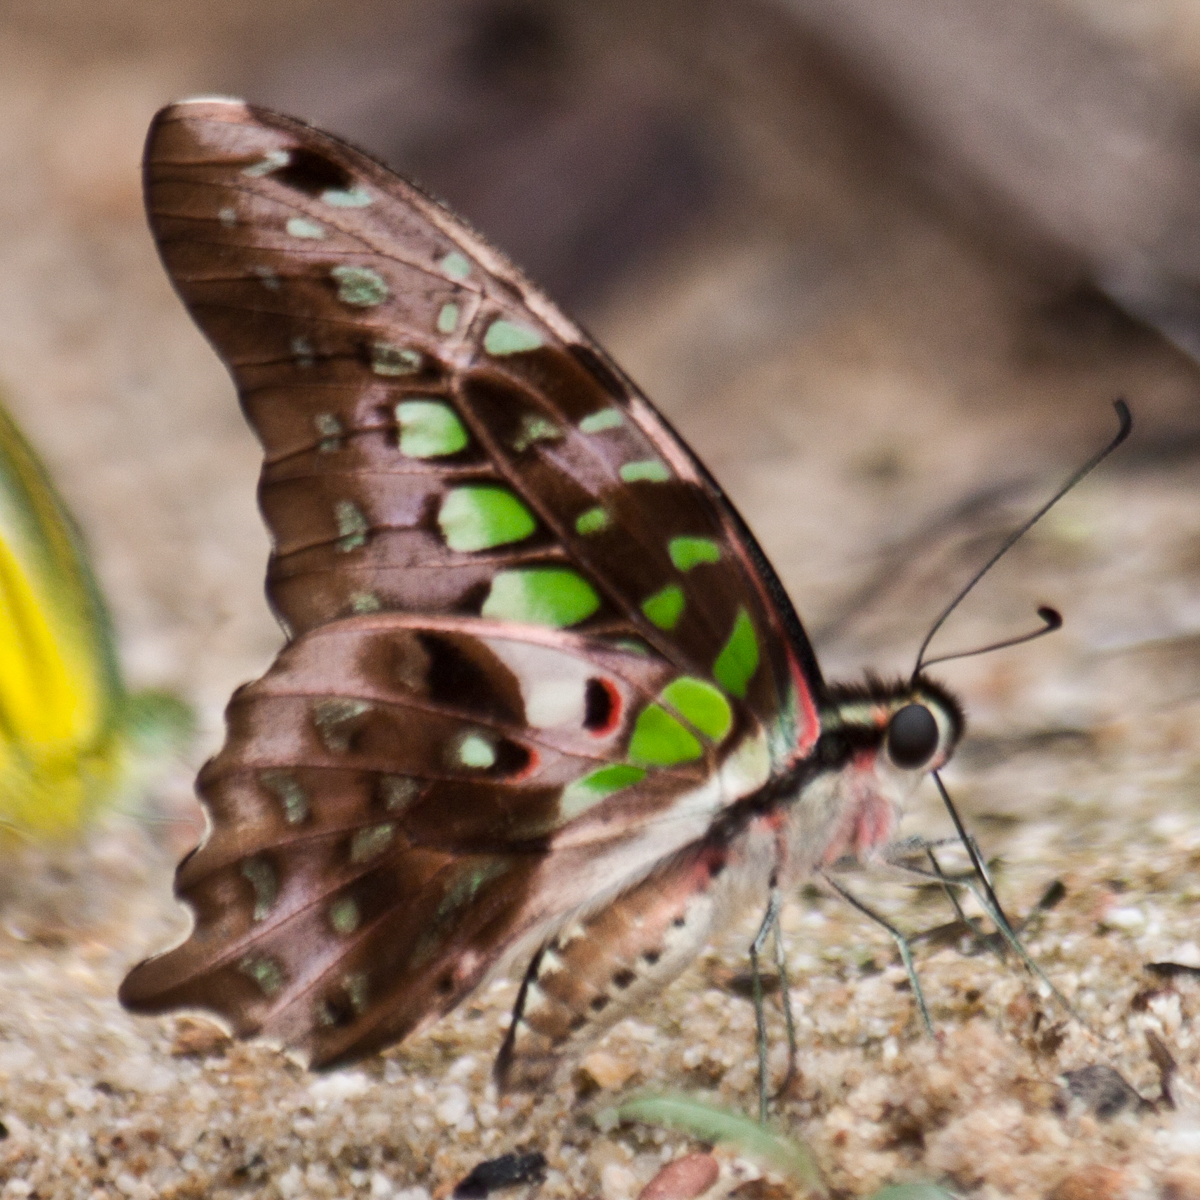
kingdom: Animalia
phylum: Arthropoda
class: Insecta
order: Lepidoptera
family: Papilionidae
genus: Graphium
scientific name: Graphium agamemnon
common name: Tailed jay
